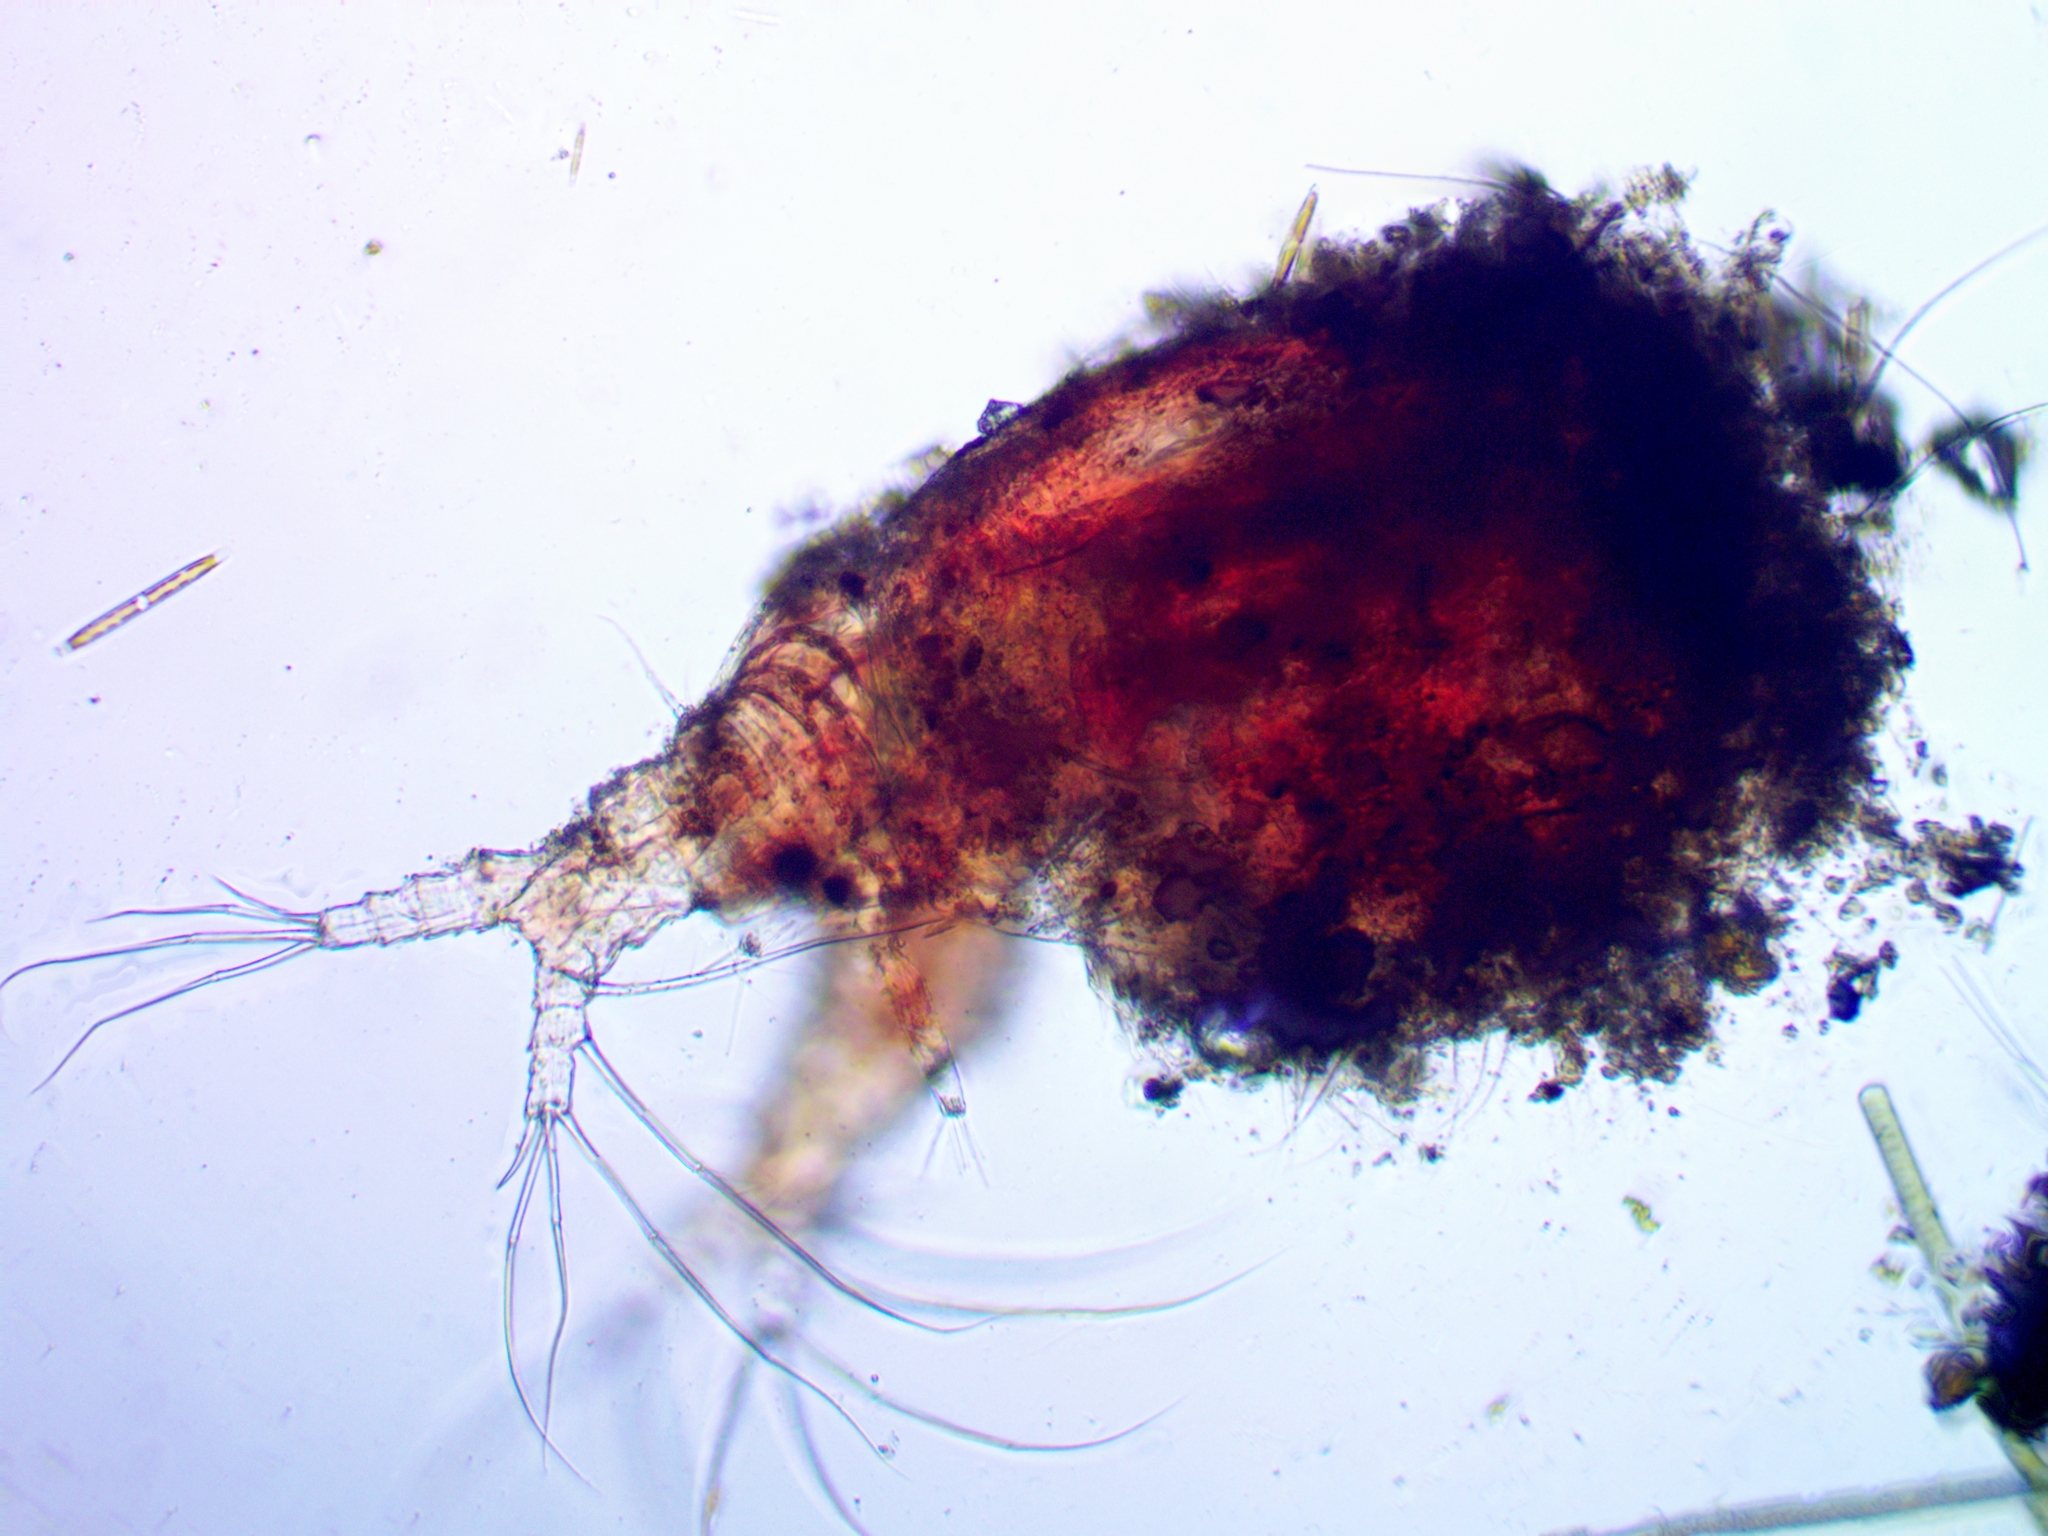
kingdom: Animalia
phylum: Arthropoda
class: Branchiopoda
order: Diplostraca
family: Ilyocryptidae
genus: Ilyocryptus
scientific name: Ilyocryptus sordidus
